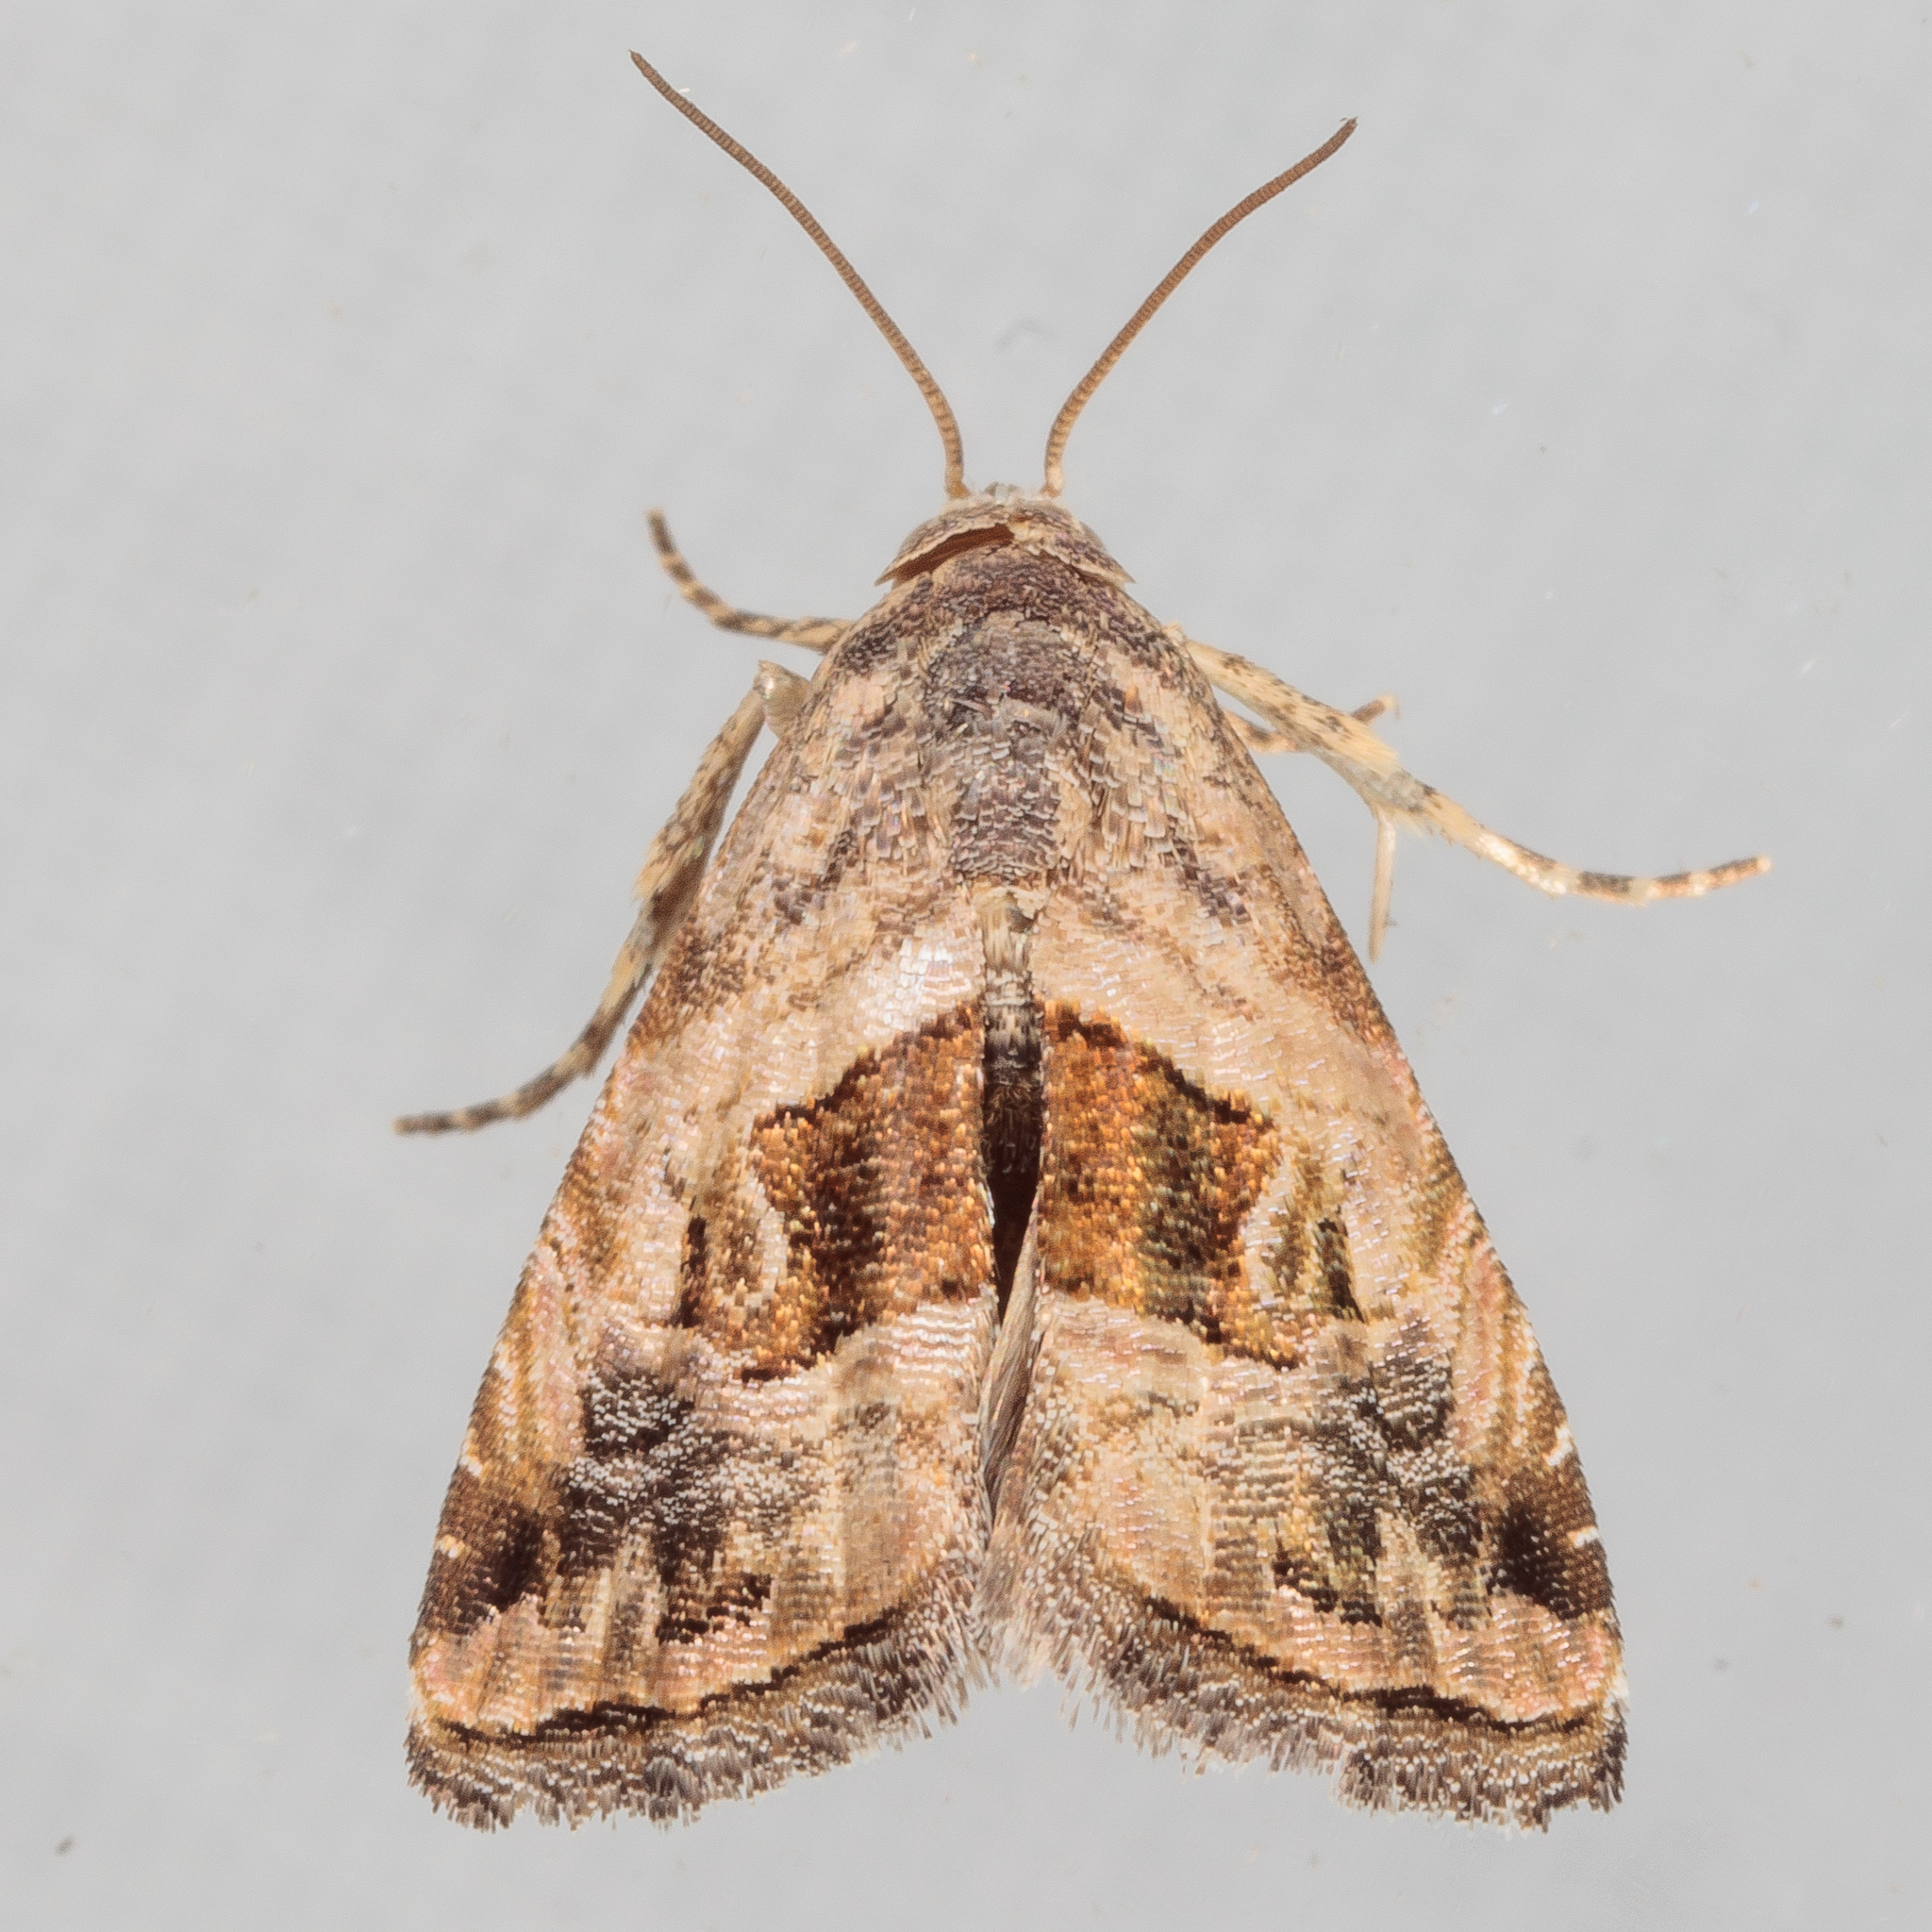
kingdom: Animalia
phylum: Arthropoda
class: Insecta
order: Lepidoptera
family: Noctuidae
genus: Tripudia
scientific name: Tripudia quadrifera
